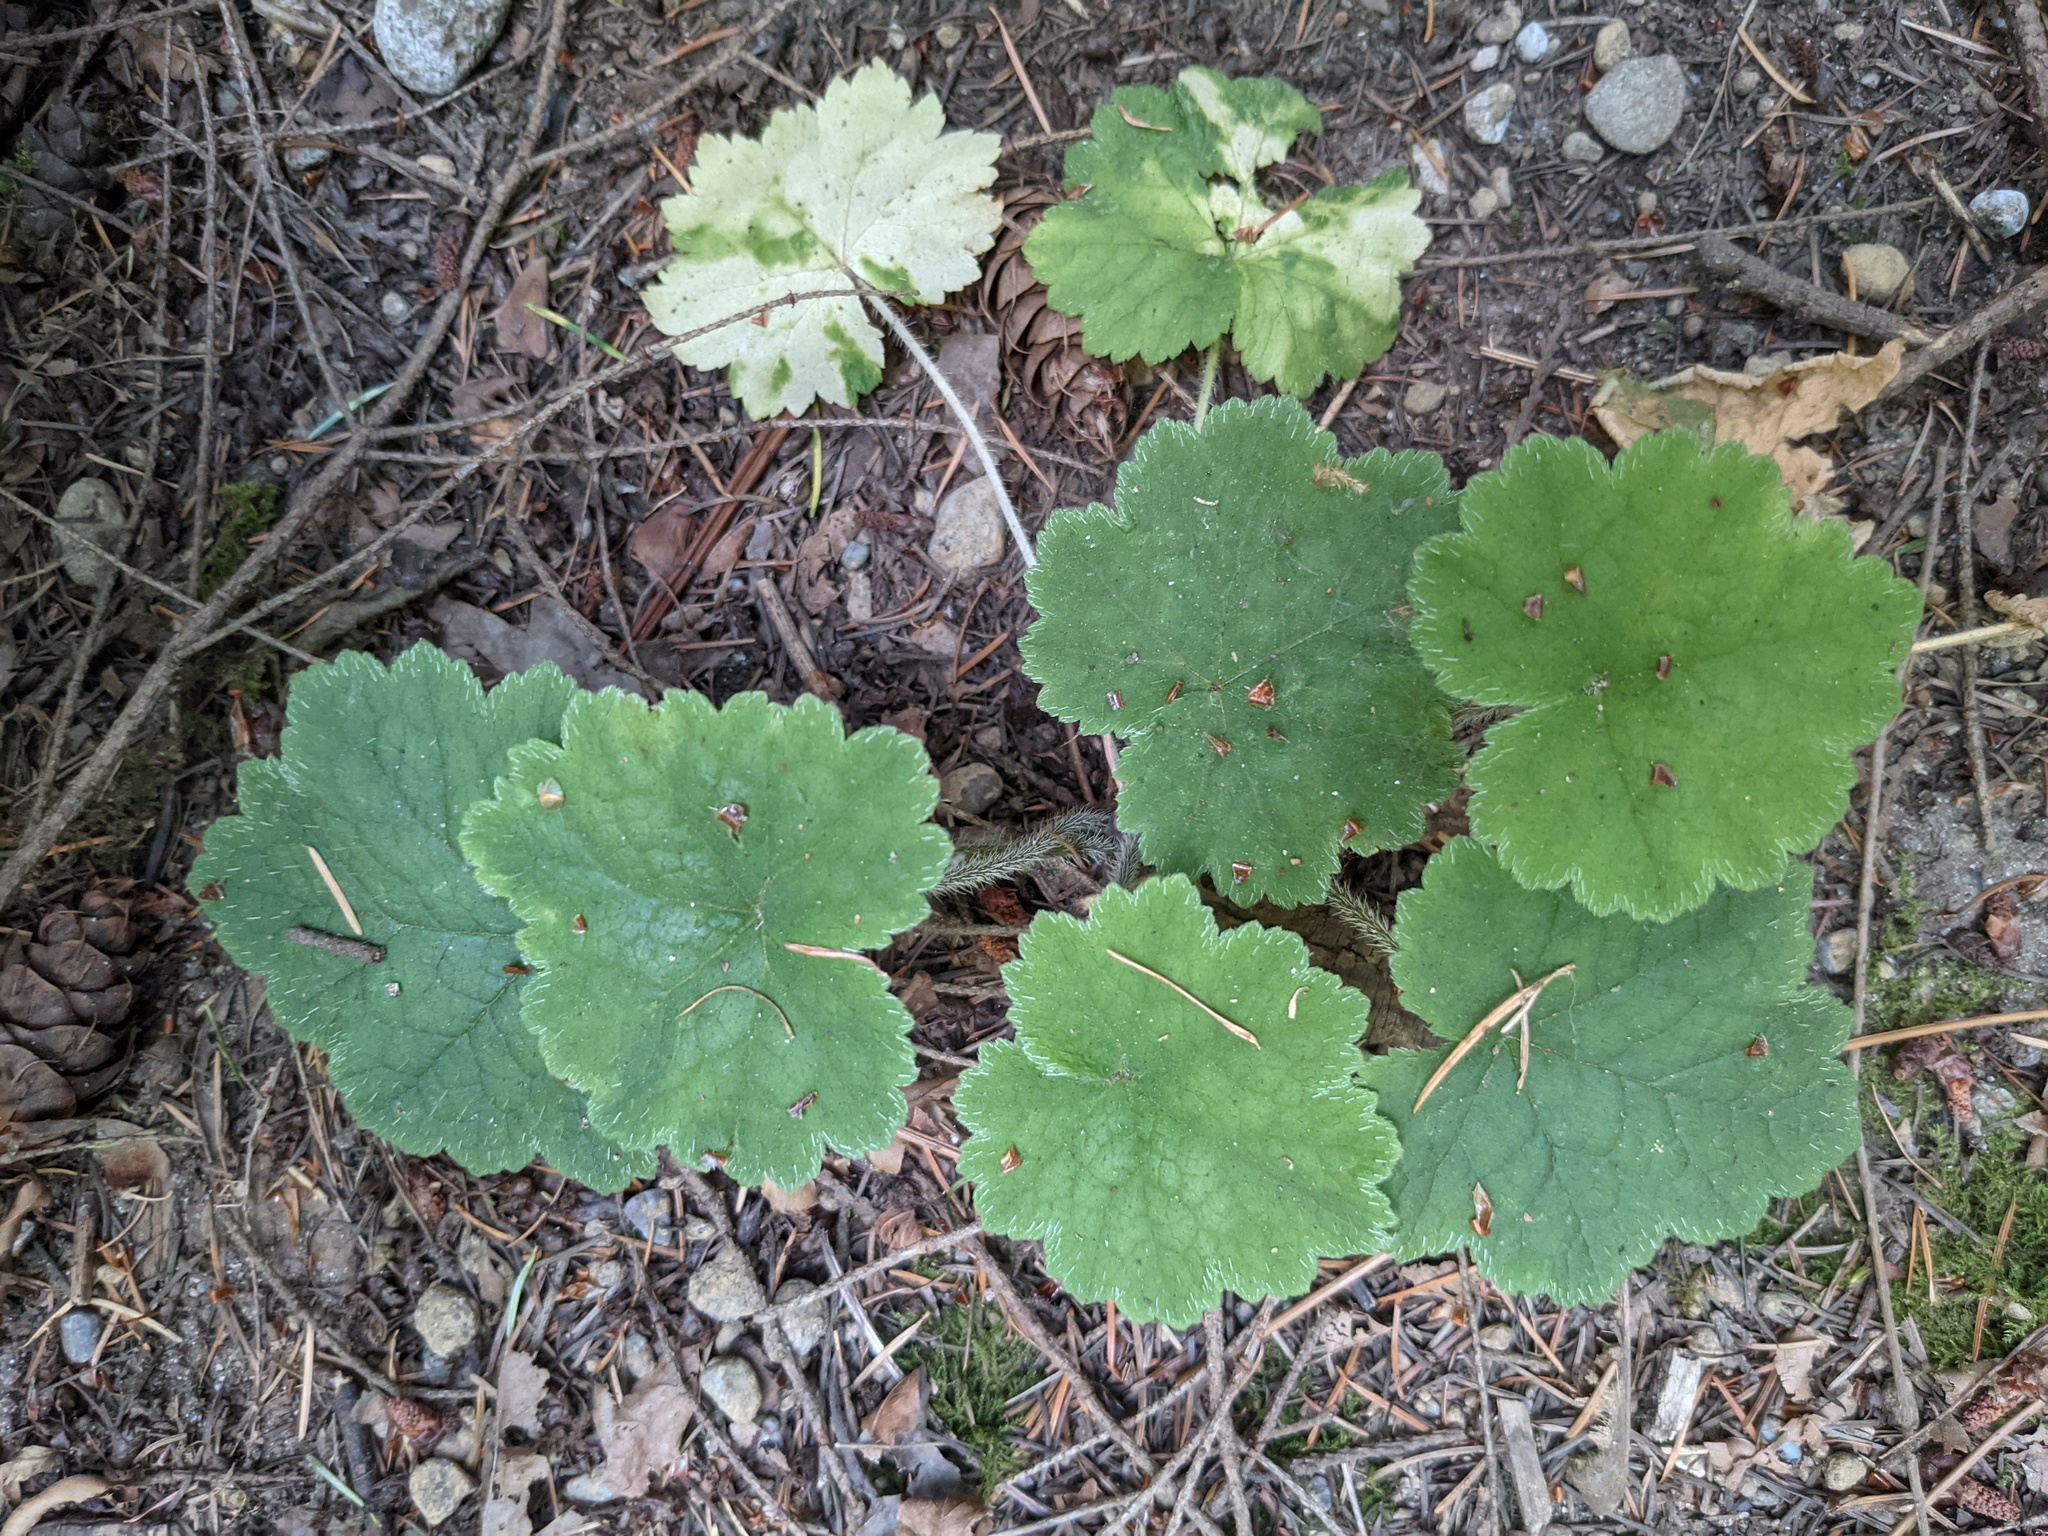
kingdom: Plantae
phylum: Tracheophyta
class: Magnoliopsida
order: Saxifragales
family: Saxifragaceae
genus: Tellima
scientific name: Tellima grandiflora
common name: Fringecups
